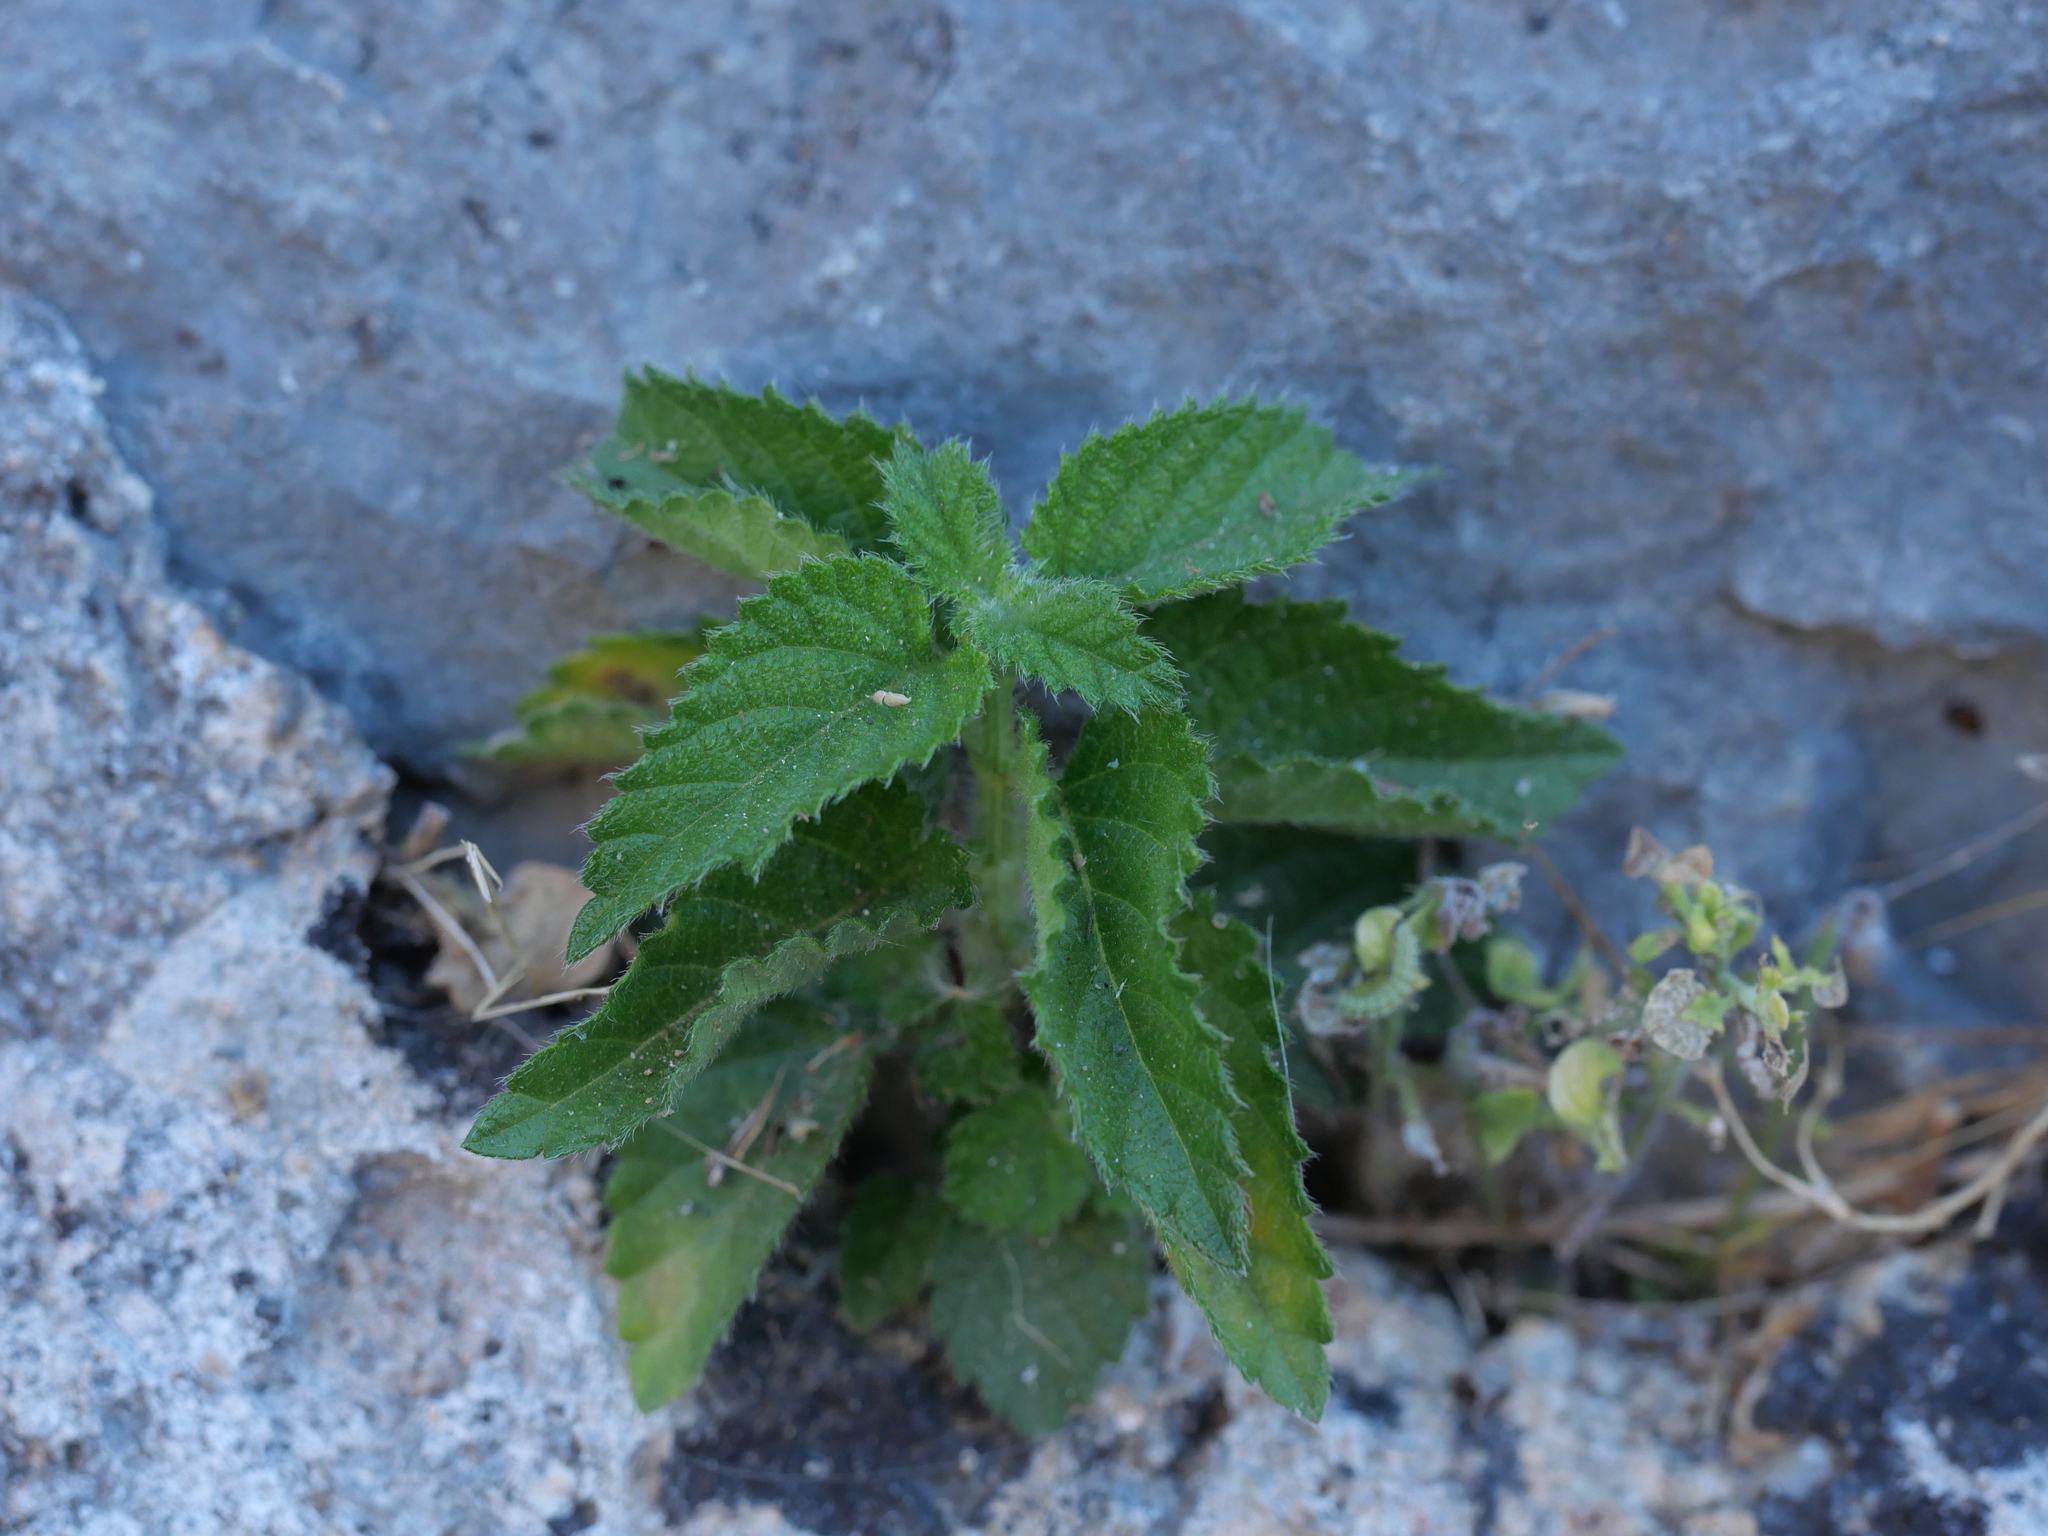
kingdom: Plantae
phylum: Tracheophyta
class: Magnoliopsida
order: Lamiales
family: Verbenaceae
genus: Lantana
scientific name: Lantana camara
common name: Lantana
